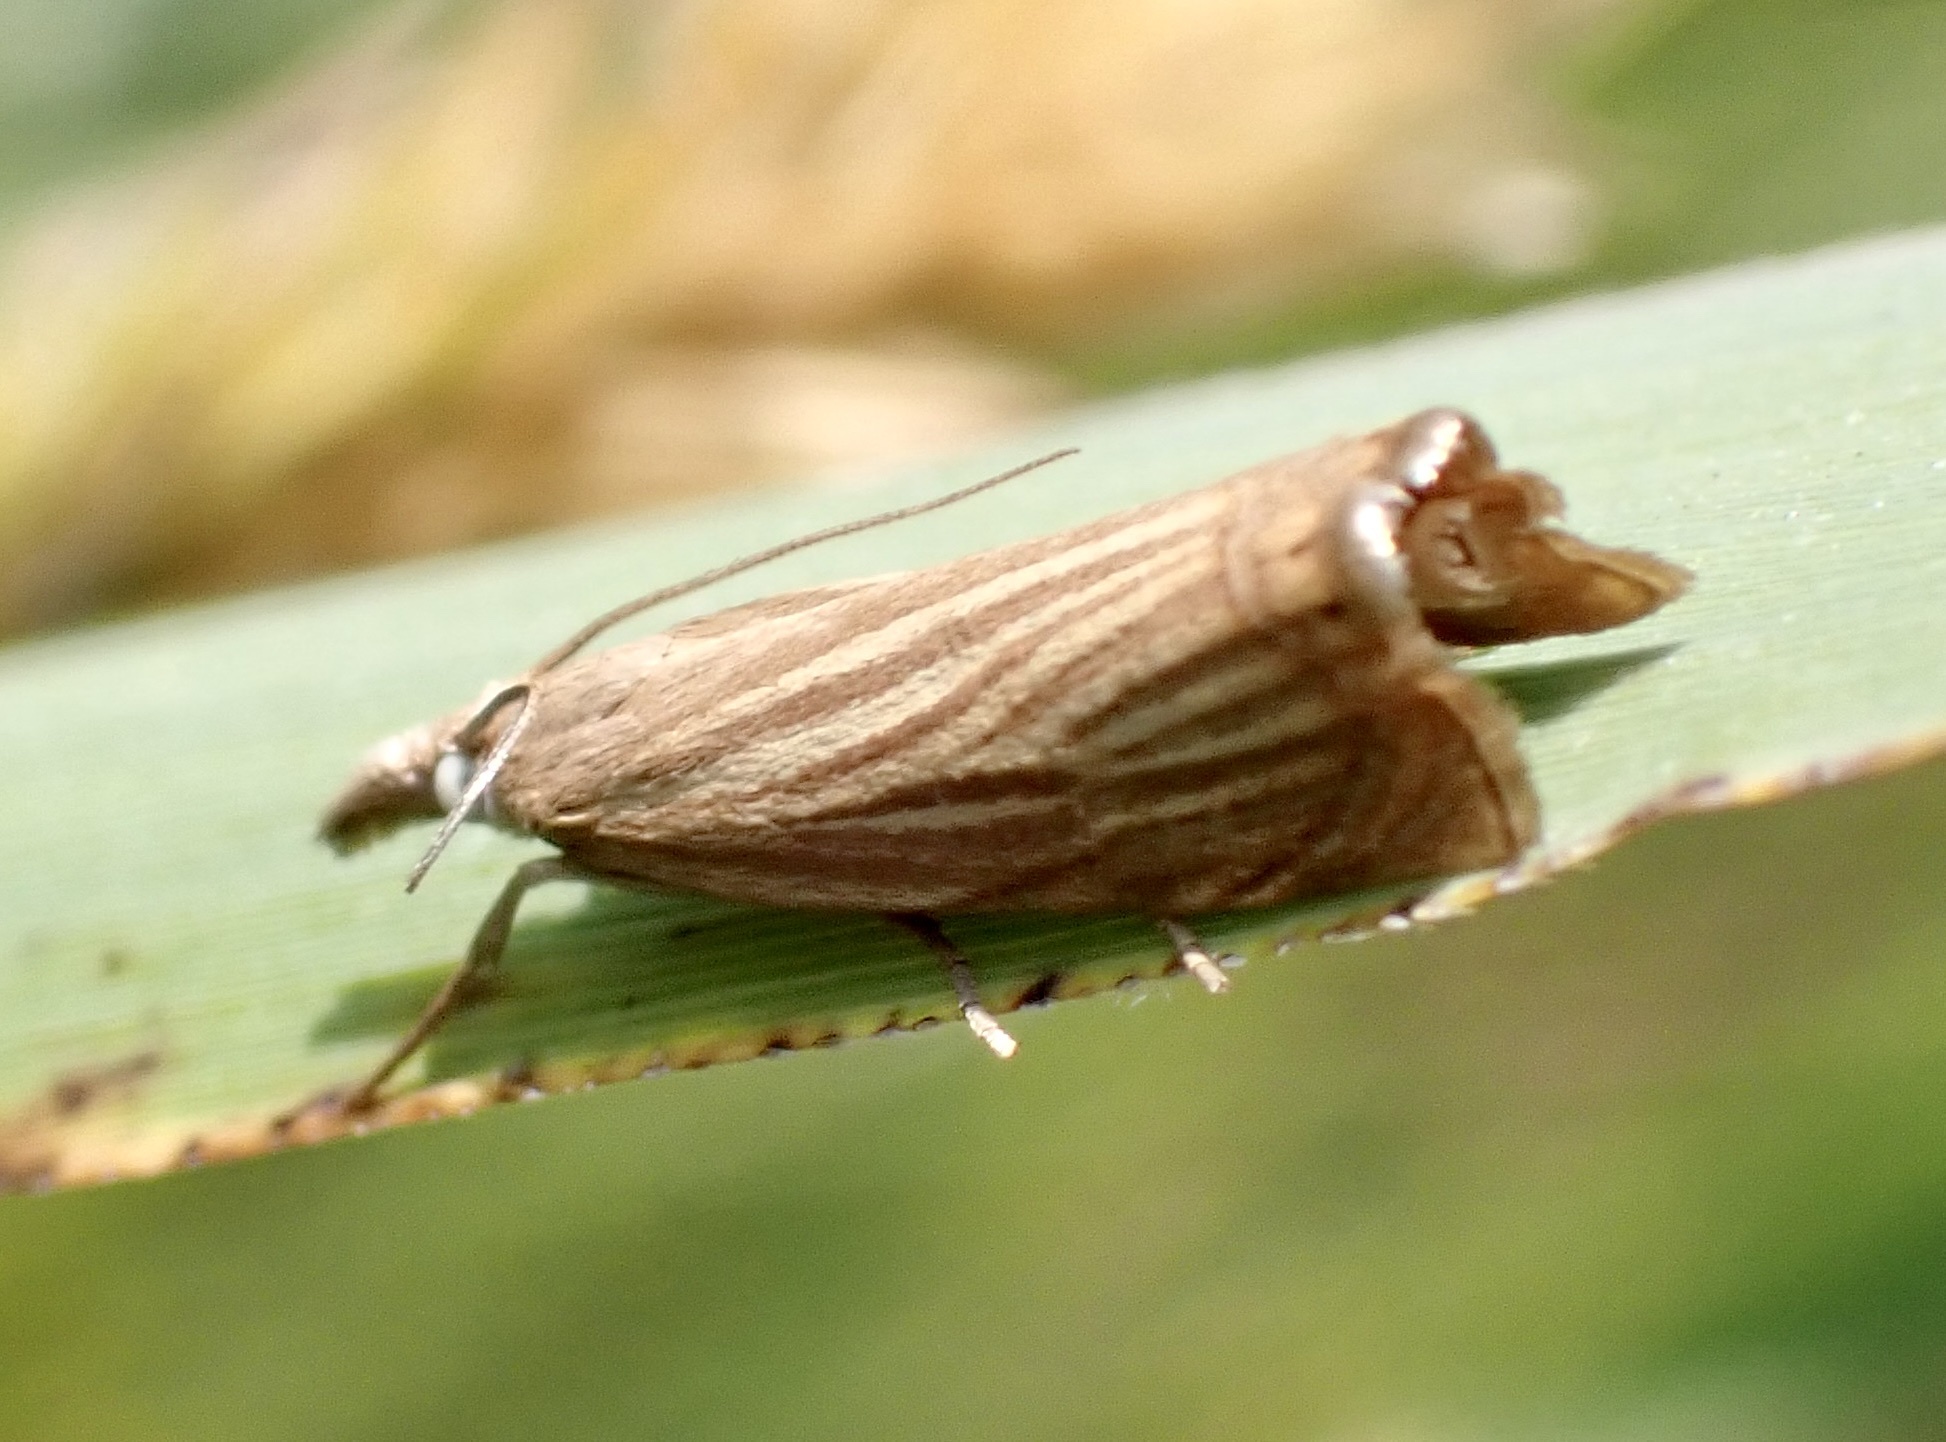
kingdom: Animalia
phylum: Arthropoda
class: Insecta
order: Lepidoptera
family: Crambidae
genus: Chrysoteuchia
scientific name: Chrysoteuchia culmella
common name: Garden grass-veneer
